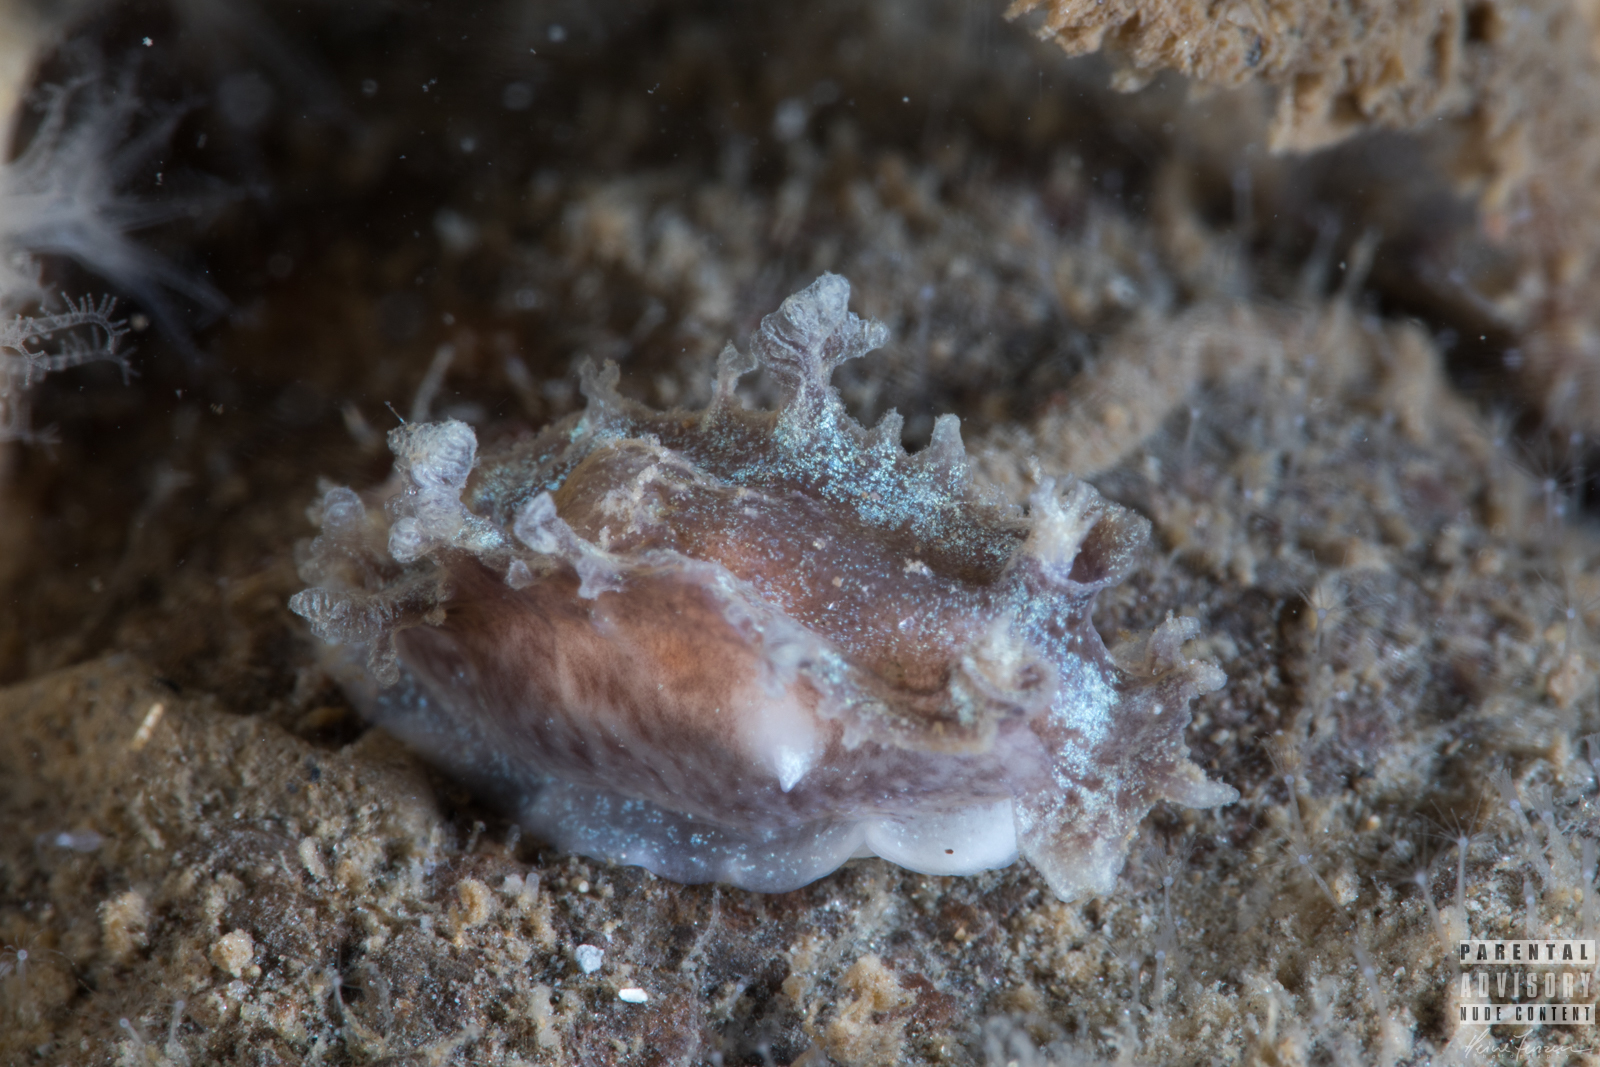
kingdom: Animalia
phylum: Mollusca
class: Gastropoda
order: Nudibranchia
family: Tritoniidae
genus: Duvaucelia
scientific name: Duvaucelia plebeia
